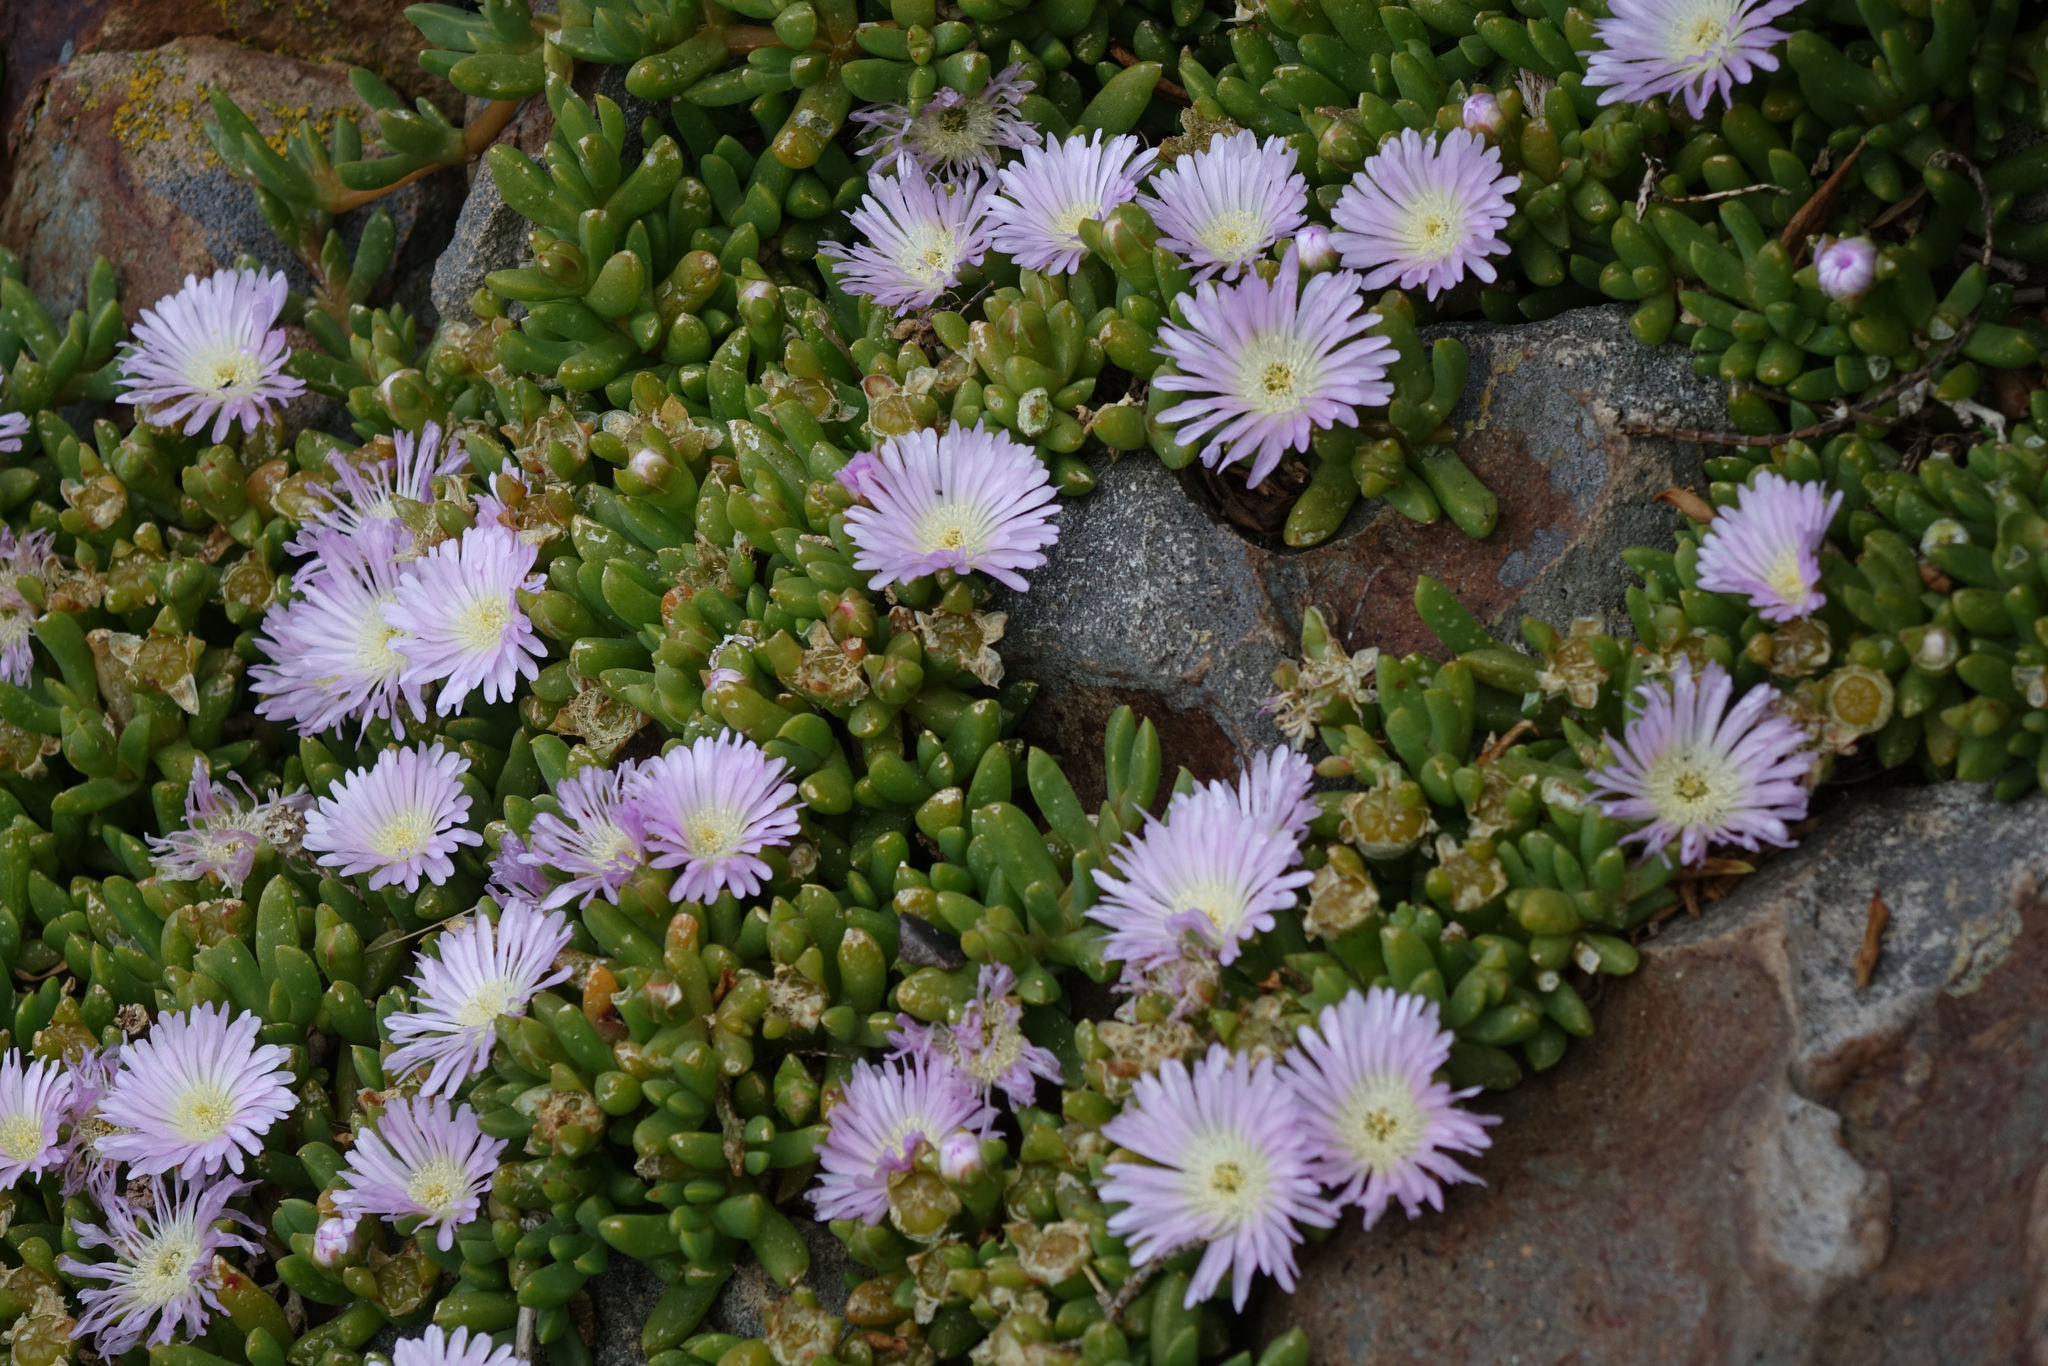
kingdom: Plantae
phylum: Tracheophyta
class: Magnoliopsida
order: Caryophyllales
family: Aizoaceae
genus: Disphyma
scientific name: Disphyma australe
